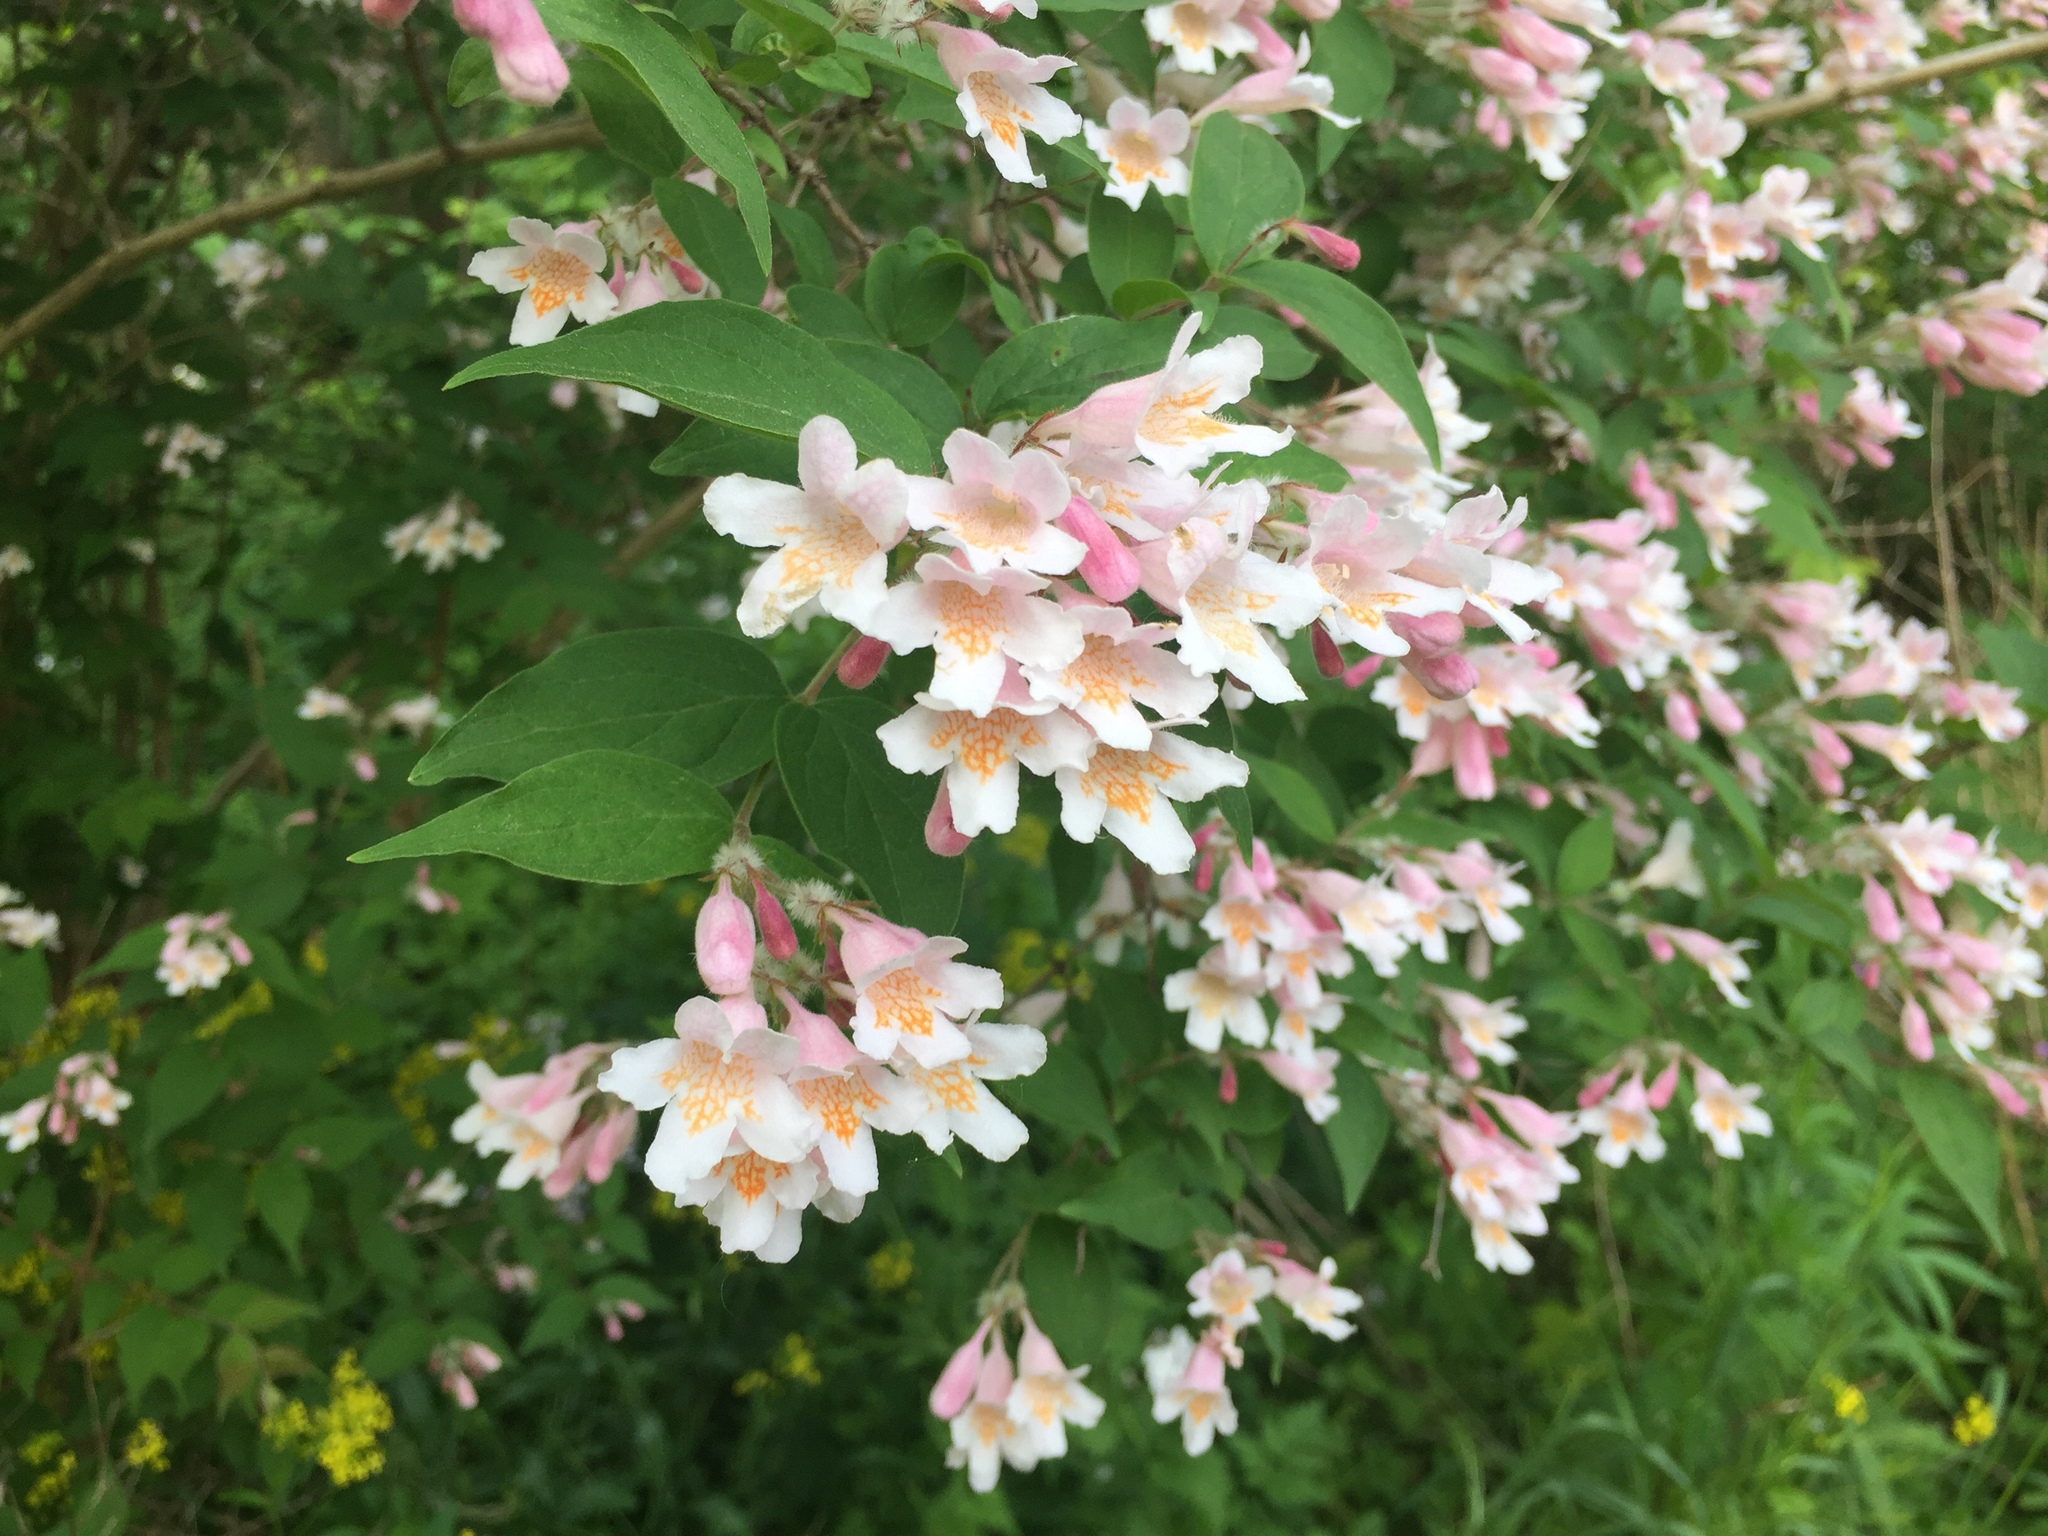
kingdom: Plantae
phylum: Tracheophyta
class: Magnoliopsida
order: Dipsacales
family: Caprifoliaceae
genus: Kolkwitzia
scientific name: Kolkwitzia amabilis
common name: Beautybush
